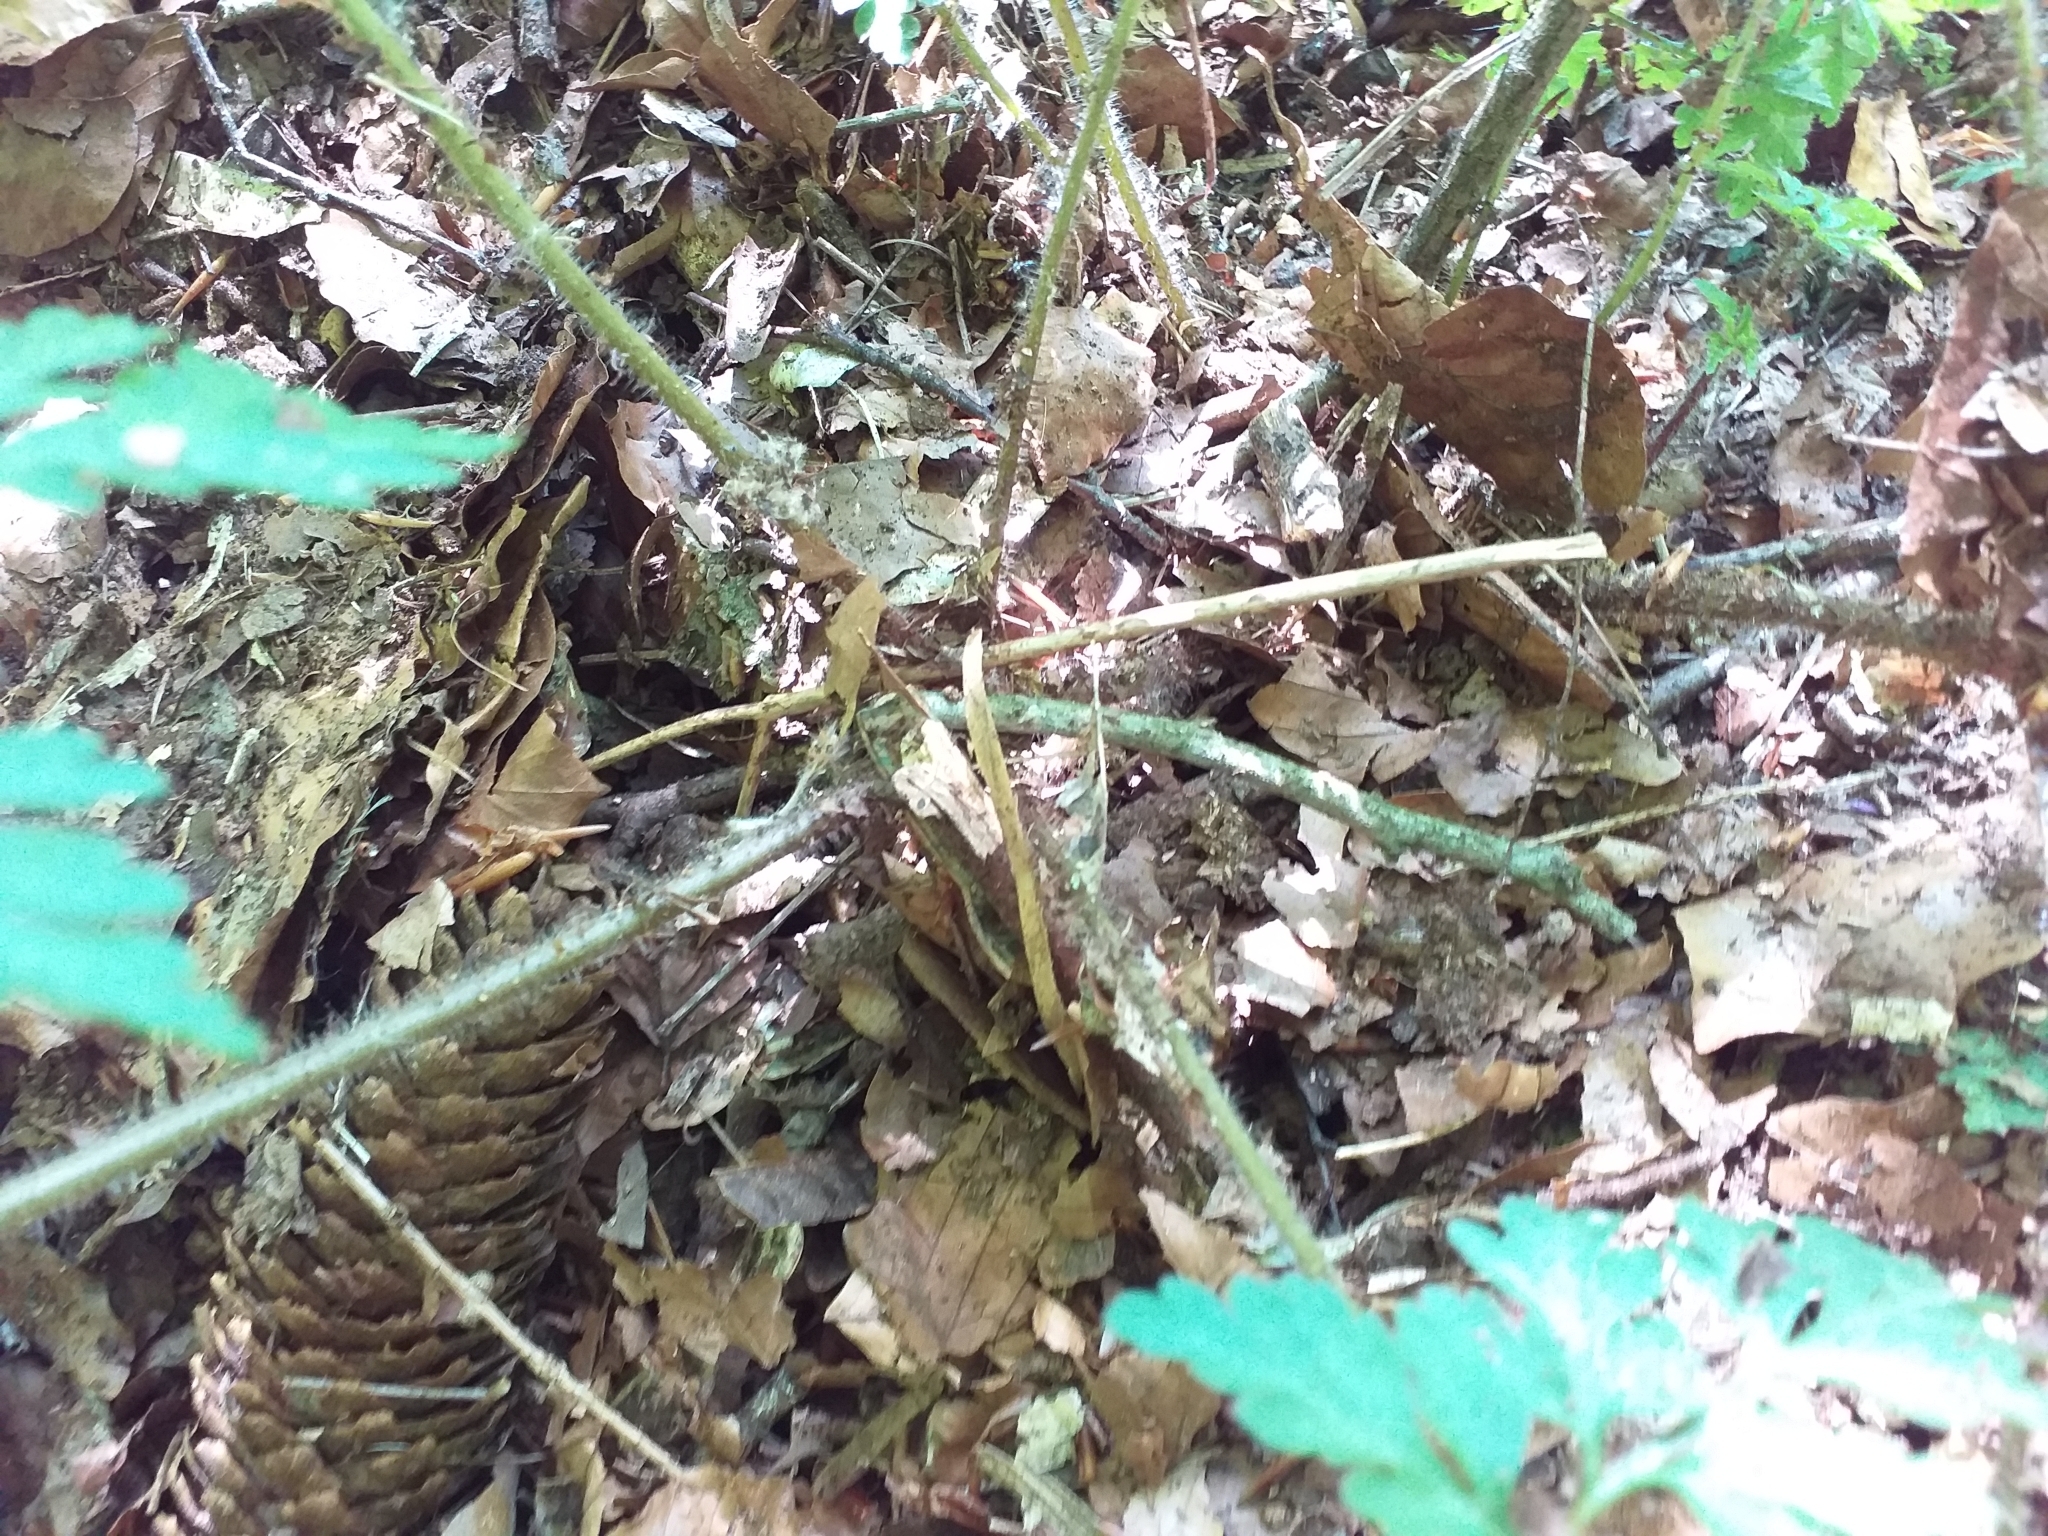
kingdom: Plantae
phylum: Tracheophyta
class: Magnoliopsida
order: Geraniales
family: Geraniaceae
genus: Geranium
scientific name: Geranium robertianum
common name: Herb-robert
